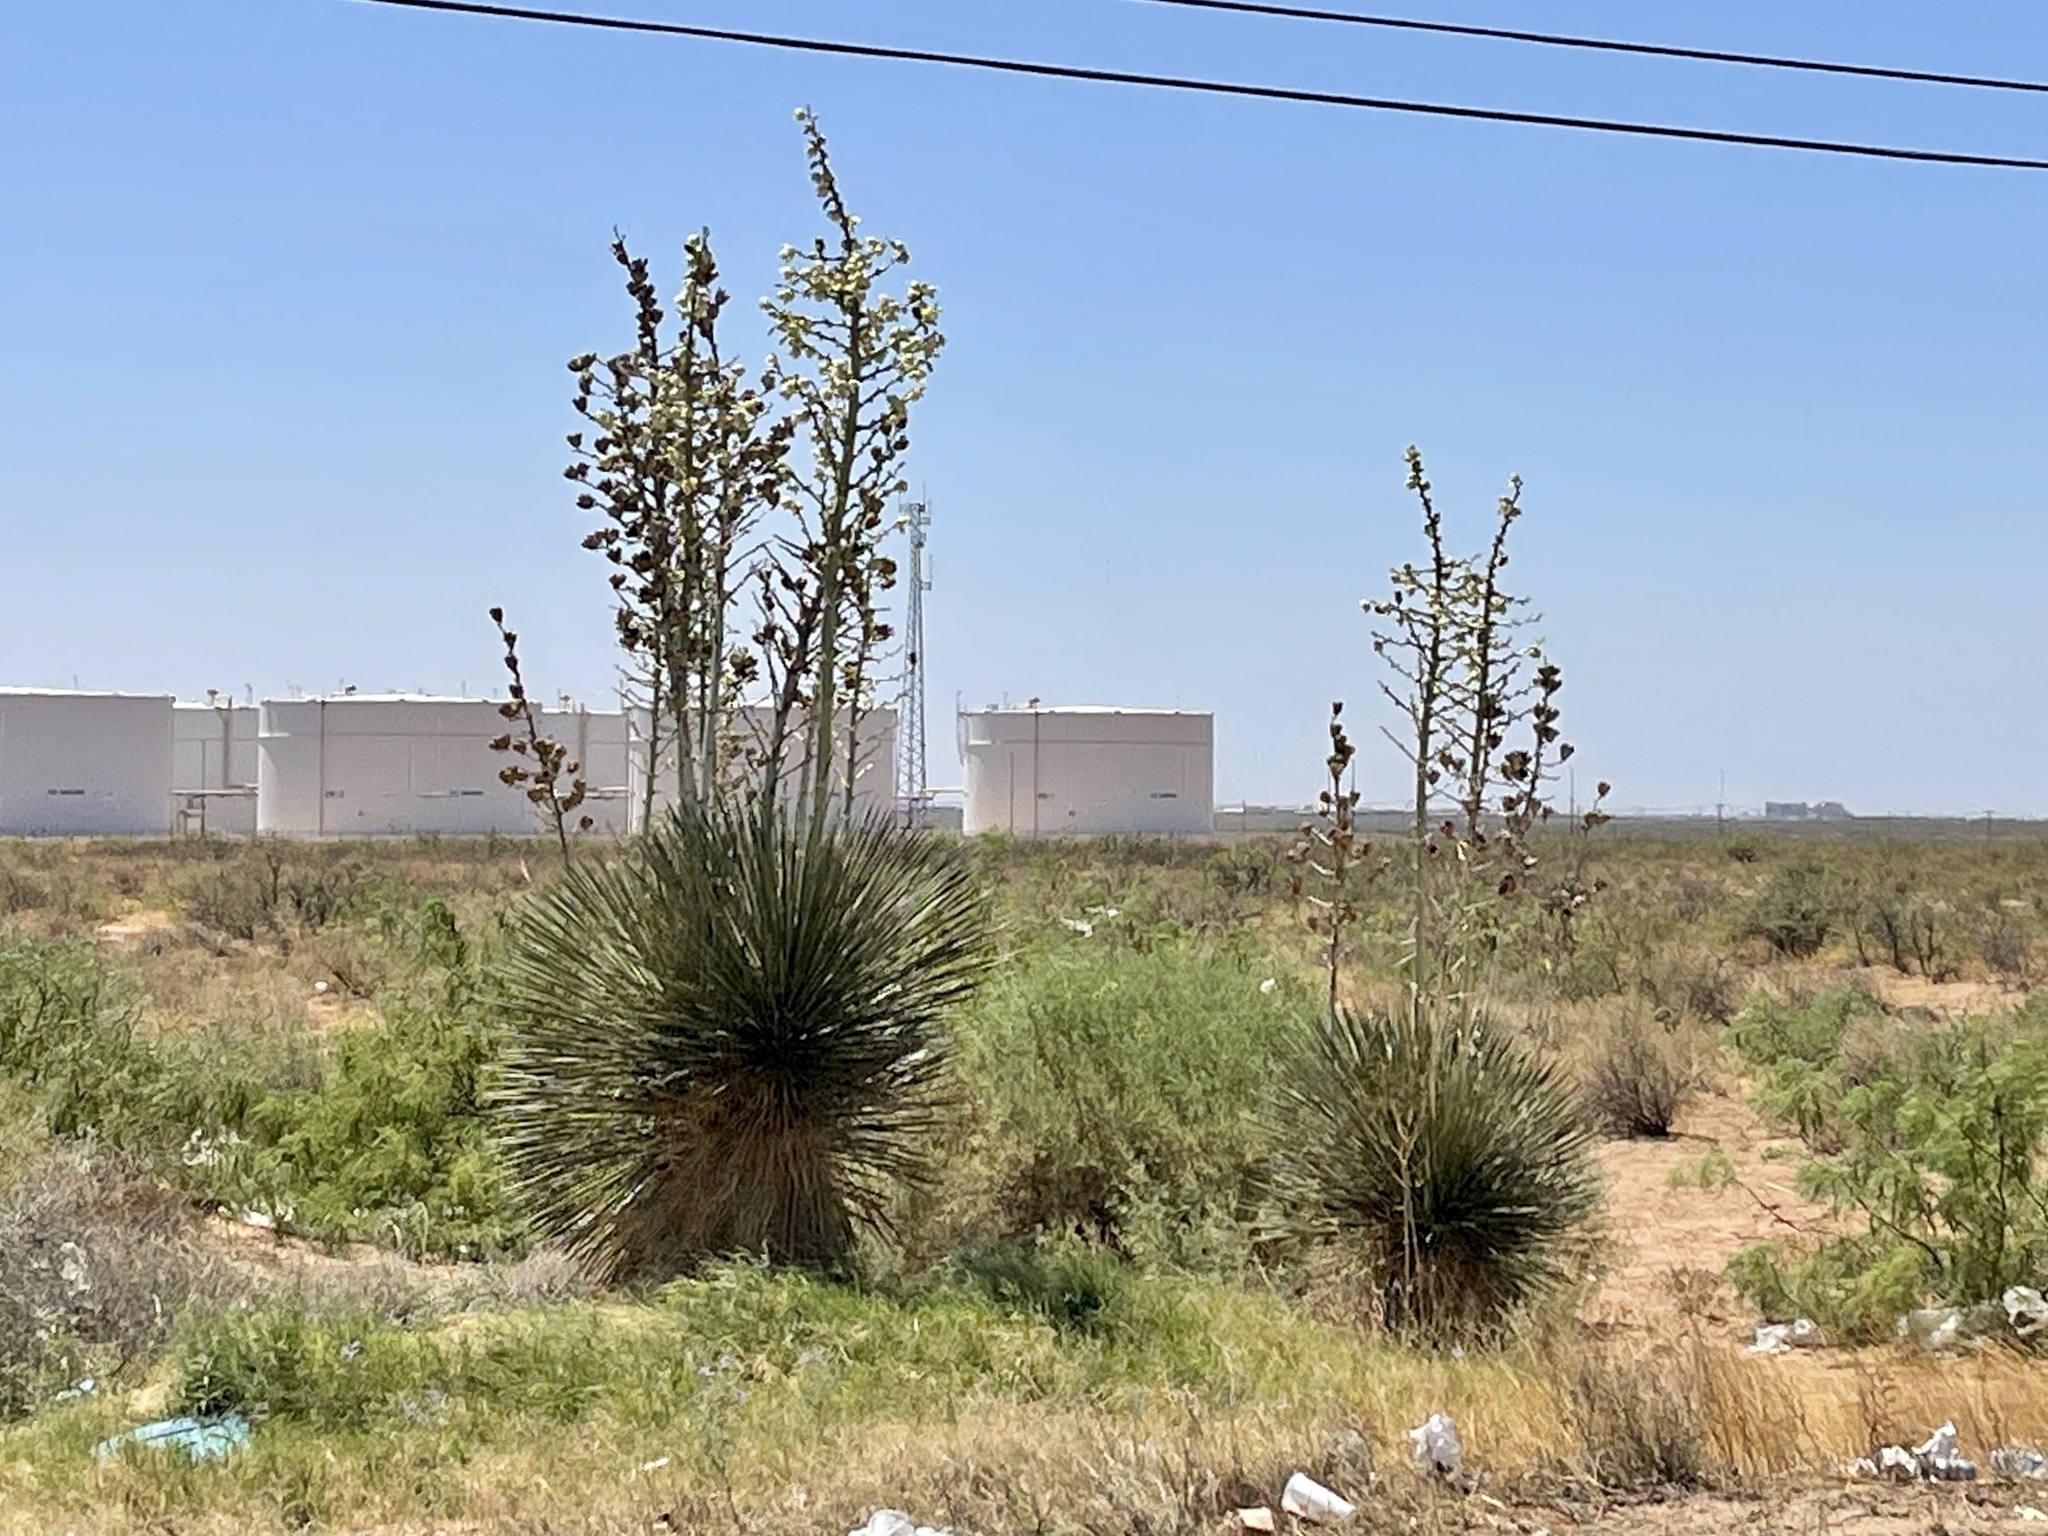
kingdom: Plantae
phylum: Tracheophyta
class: Liliopsida
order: Asparagales
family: Asparagaceae
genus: Yucca
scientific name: Yucca elata
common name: Palmella
